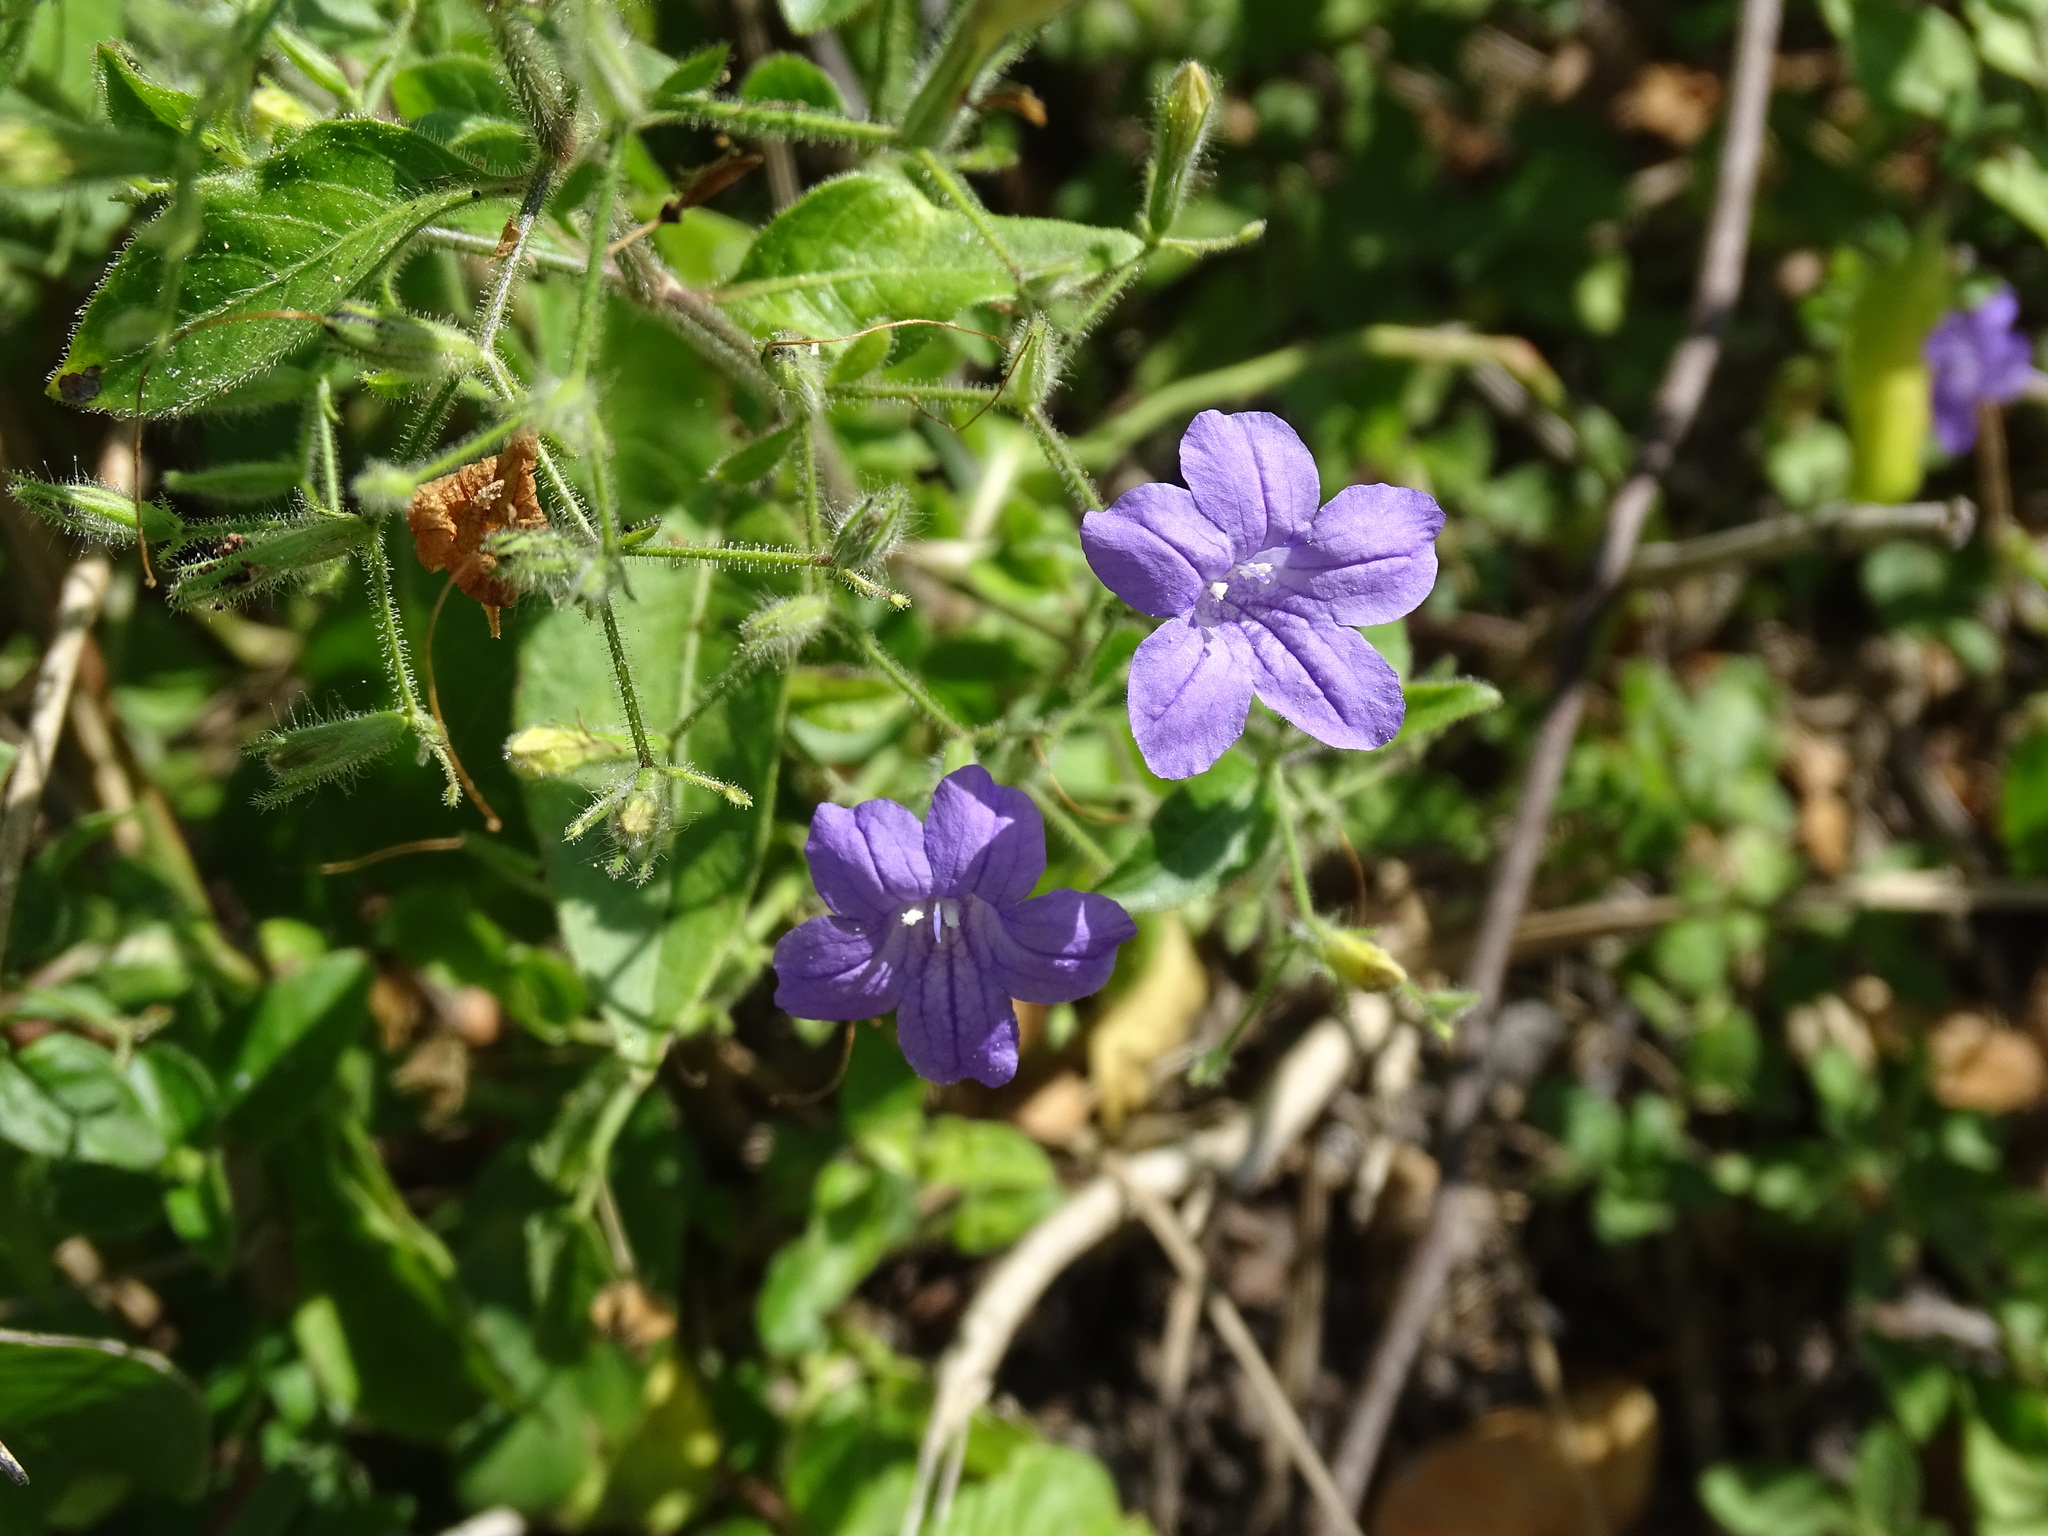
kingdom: Plantae
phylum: Tracheophyta
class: Magnoliopsida
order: Lamiales
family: Acanthaceae
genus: Ruellia
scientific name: Ruellia paniculata
